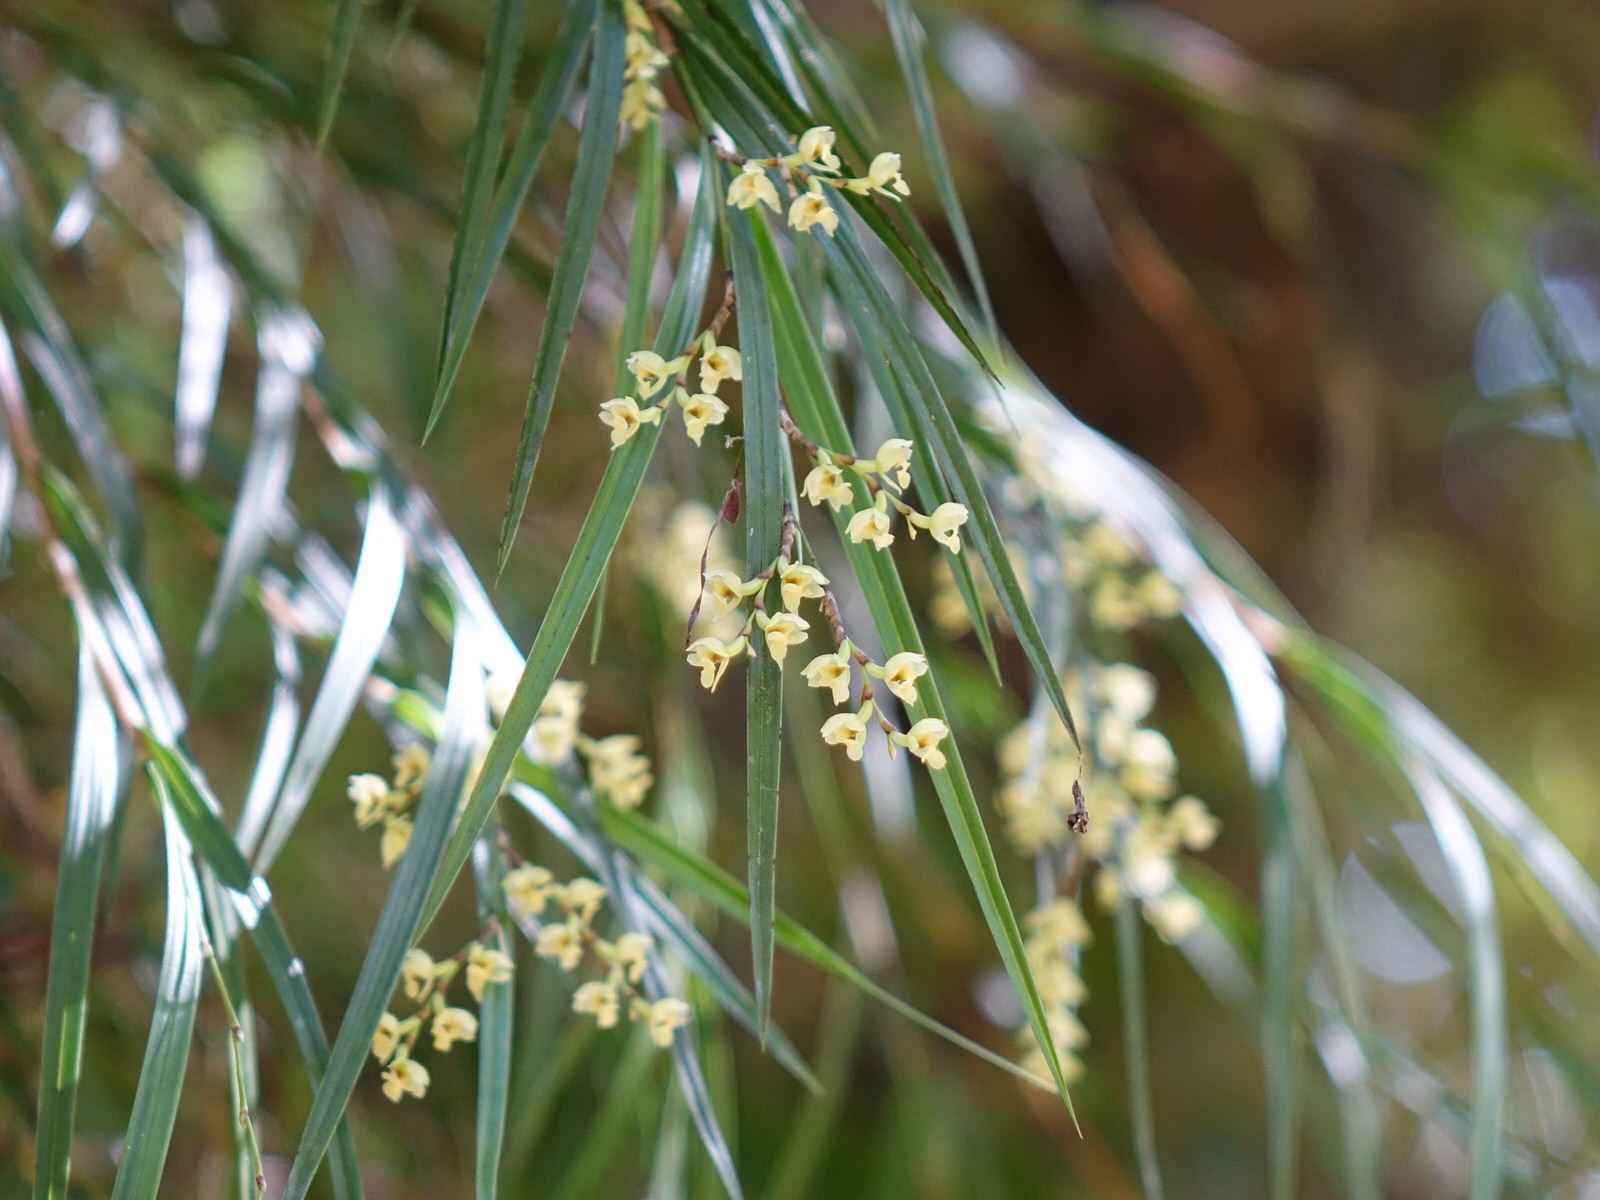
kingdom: Plantae
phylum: Tracheophyta
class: Liliopsida
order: Asparagales
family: Orchidaceae
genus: Earina
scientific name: Earina mucronata
